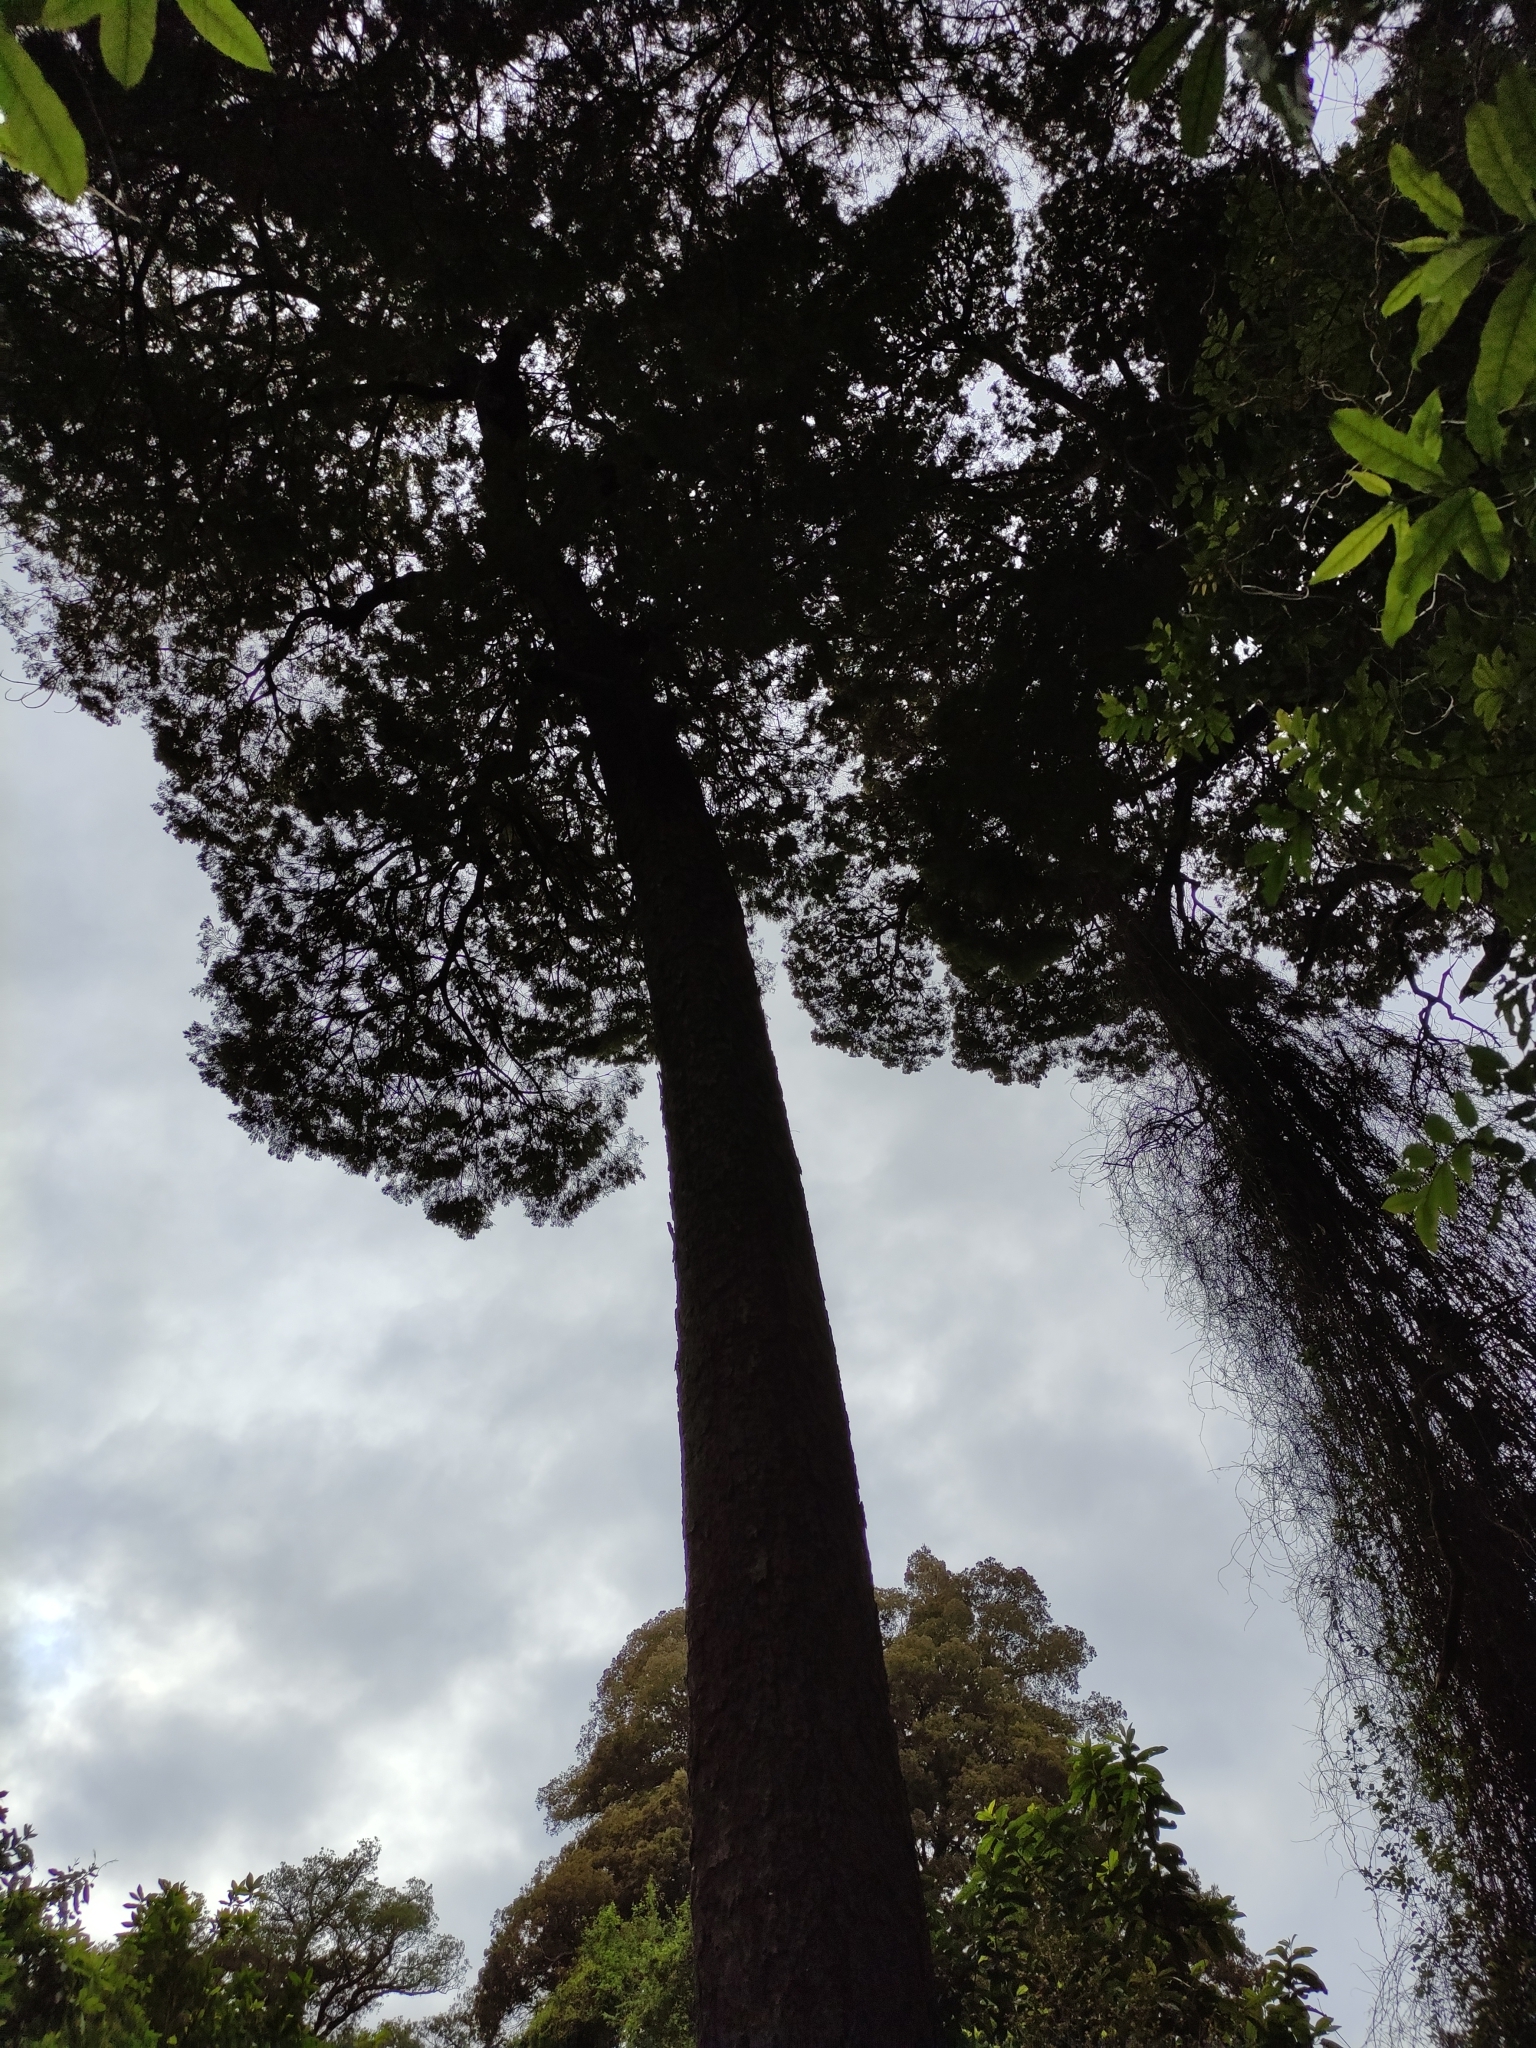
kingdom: Plantae
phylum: Tracheophyta
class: Pinopsida
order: Pinales
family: Podocarpaceae
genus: Dacrycarpus
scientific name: Dacrycarpus dacrydioides
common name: White pine
